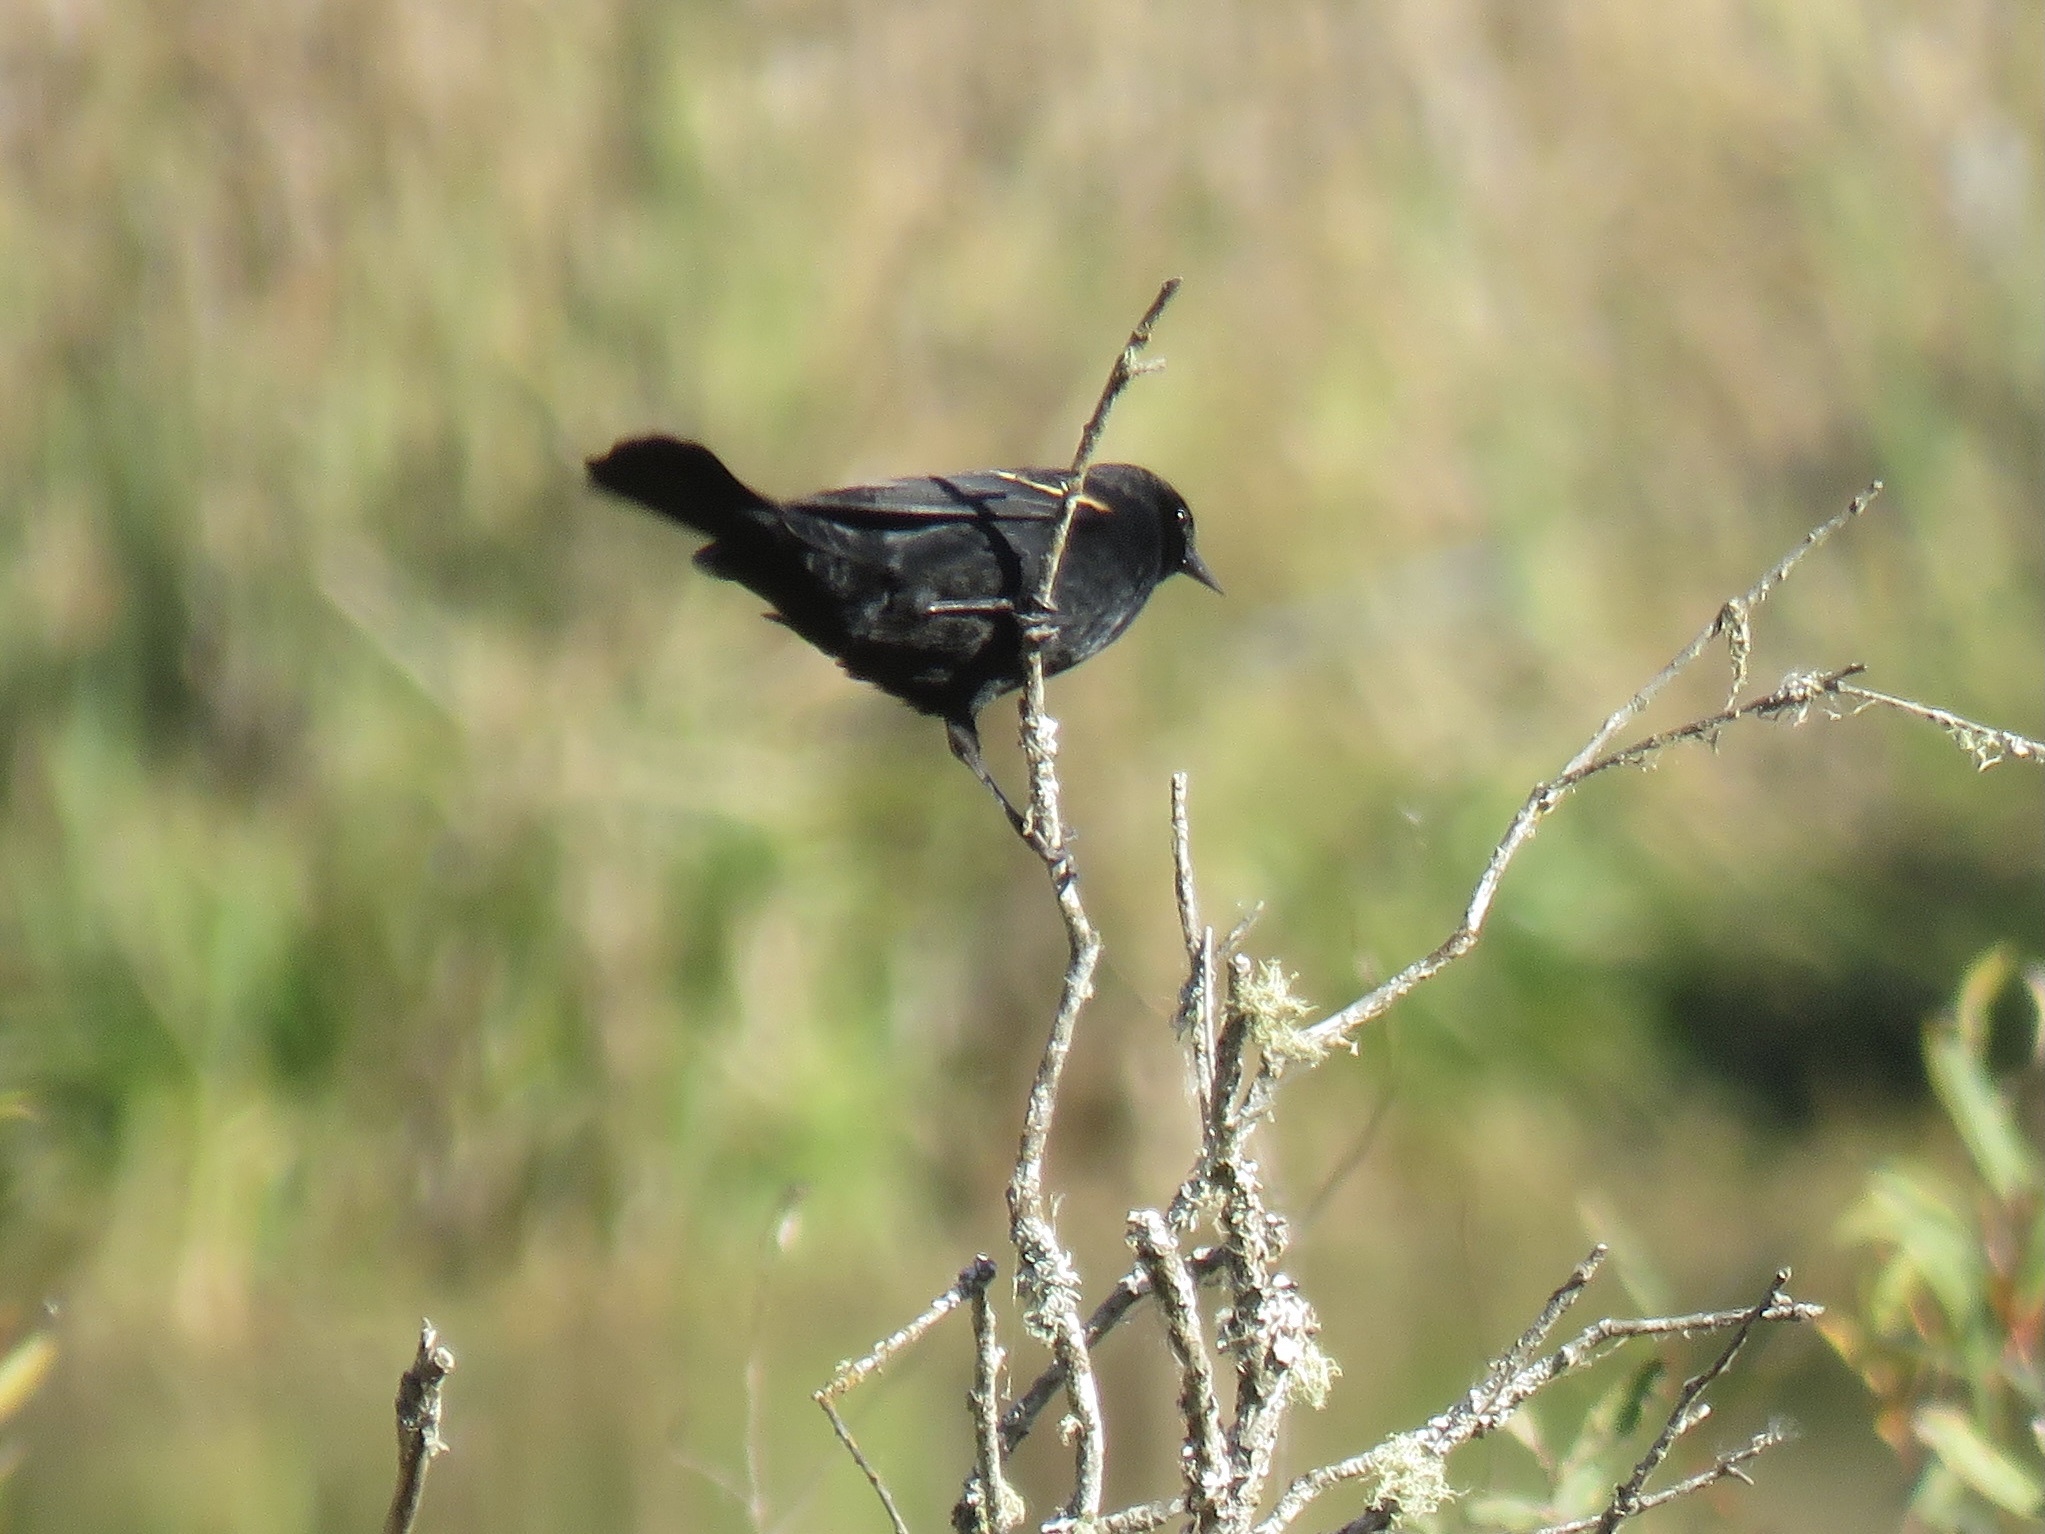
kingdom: Animalia
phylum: Chordata
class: Aves
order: Passeriformes
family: Icteridae
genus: Agelaius
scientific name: Agelaius phoeniceus
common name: Red-winged blackbird
